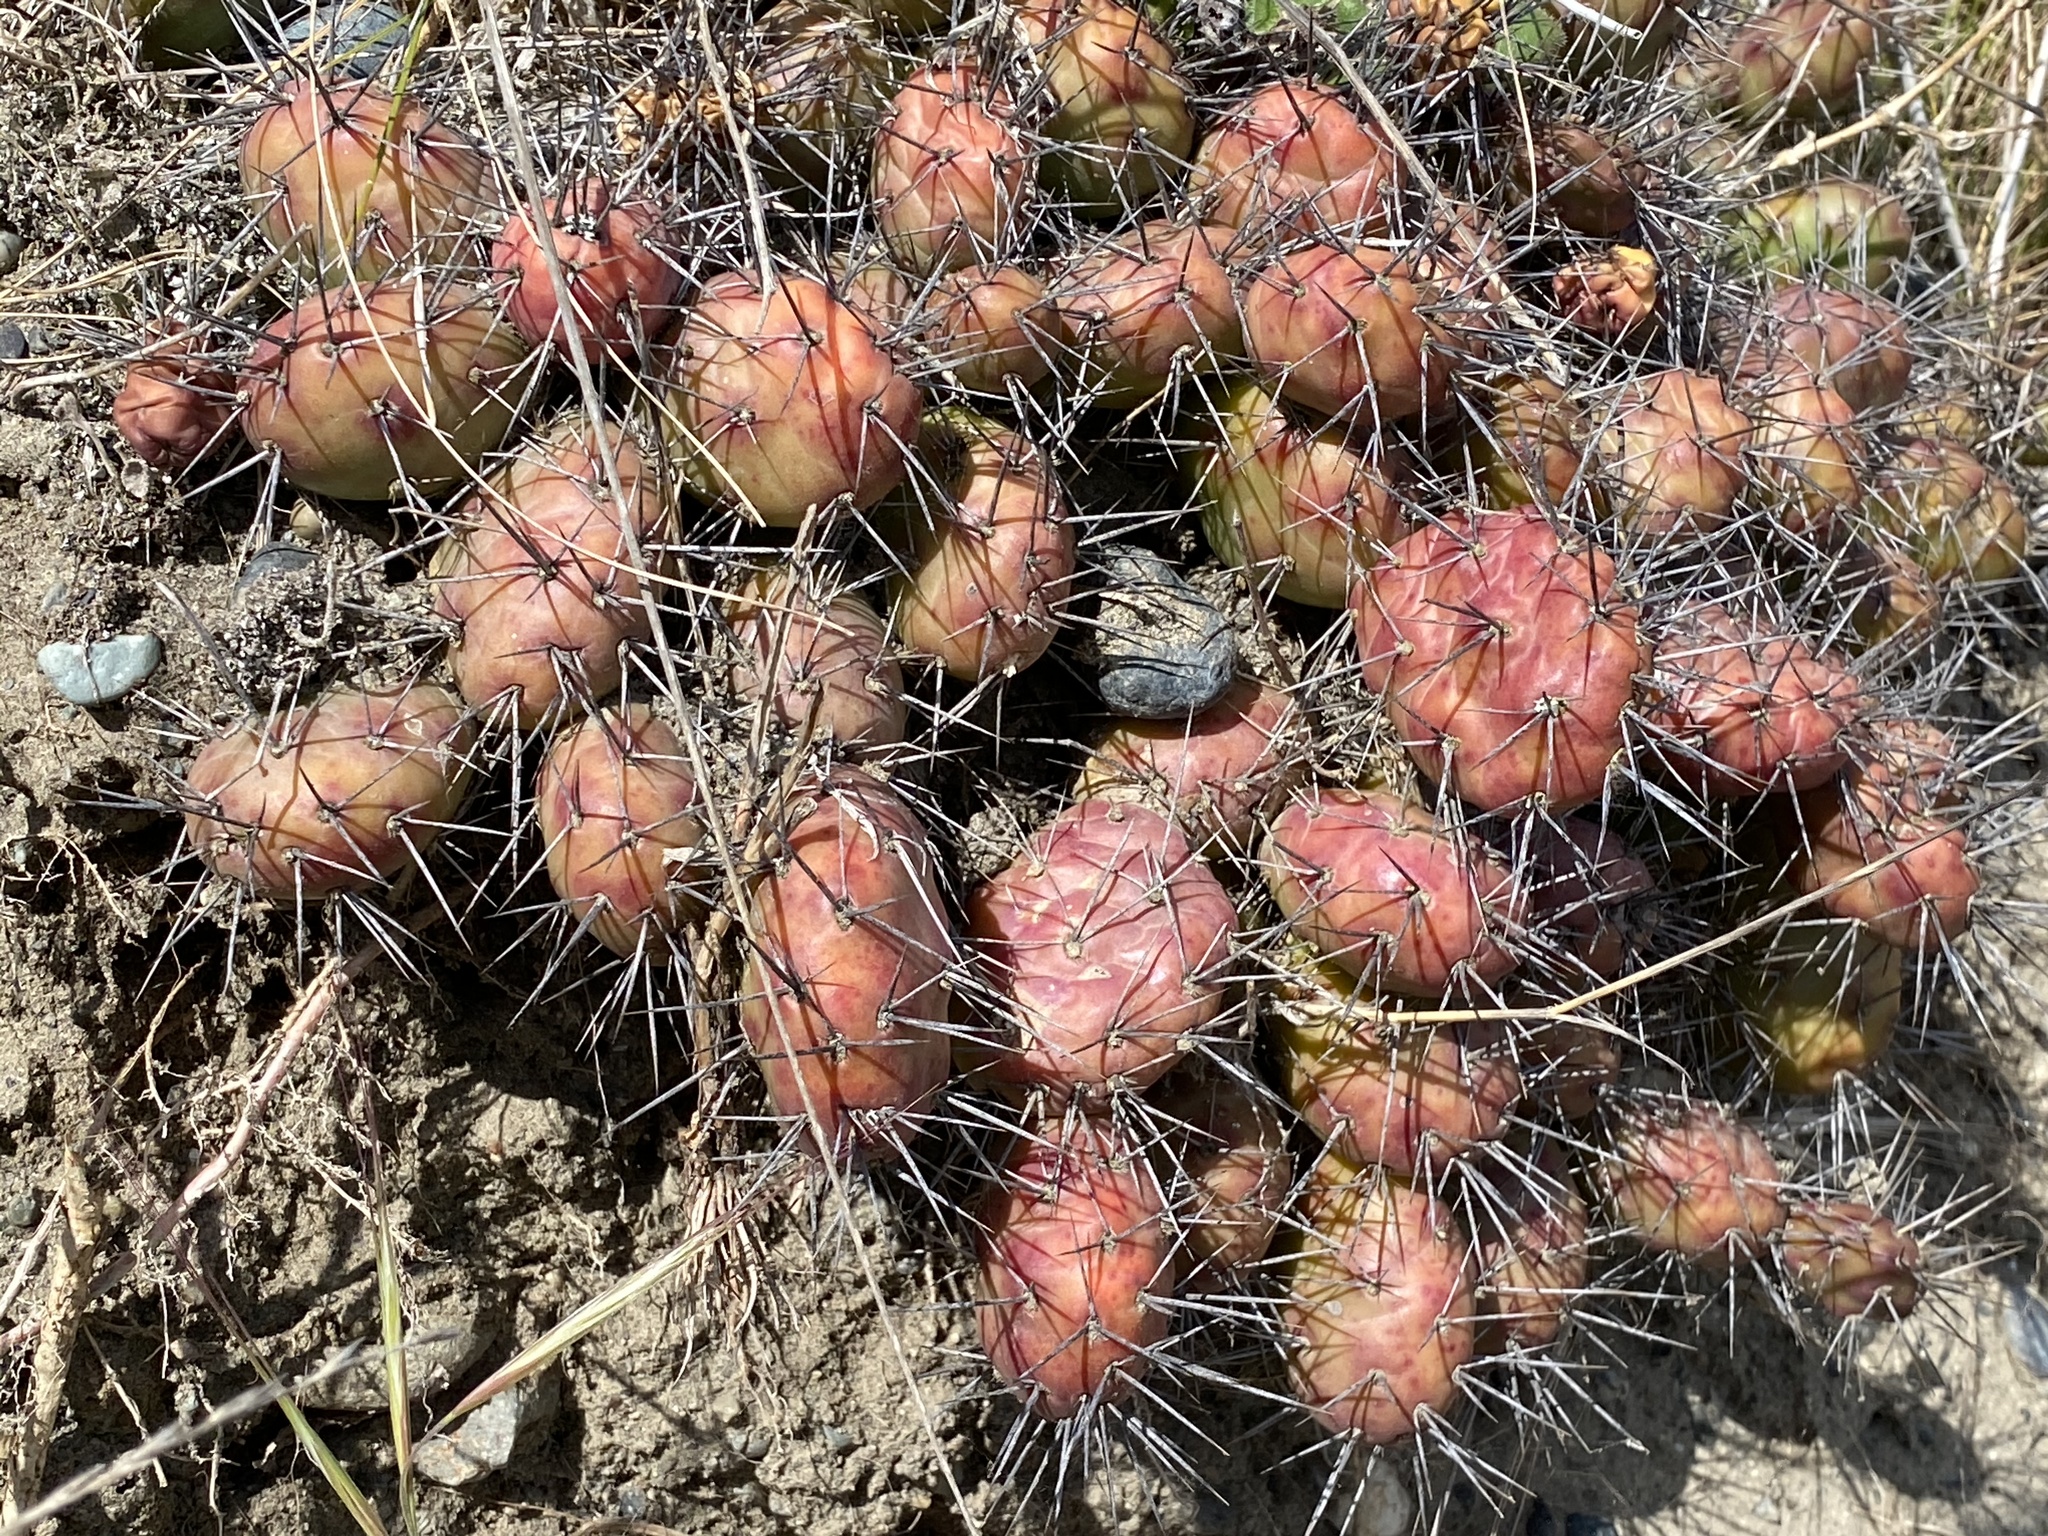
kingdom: Plantae
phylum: Tracheophyta
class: Magnoliopsida
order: Caryophyllales
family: Cactaceae
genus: Opuntia
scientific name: Opuntia fragilis
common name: Brittle cactus
